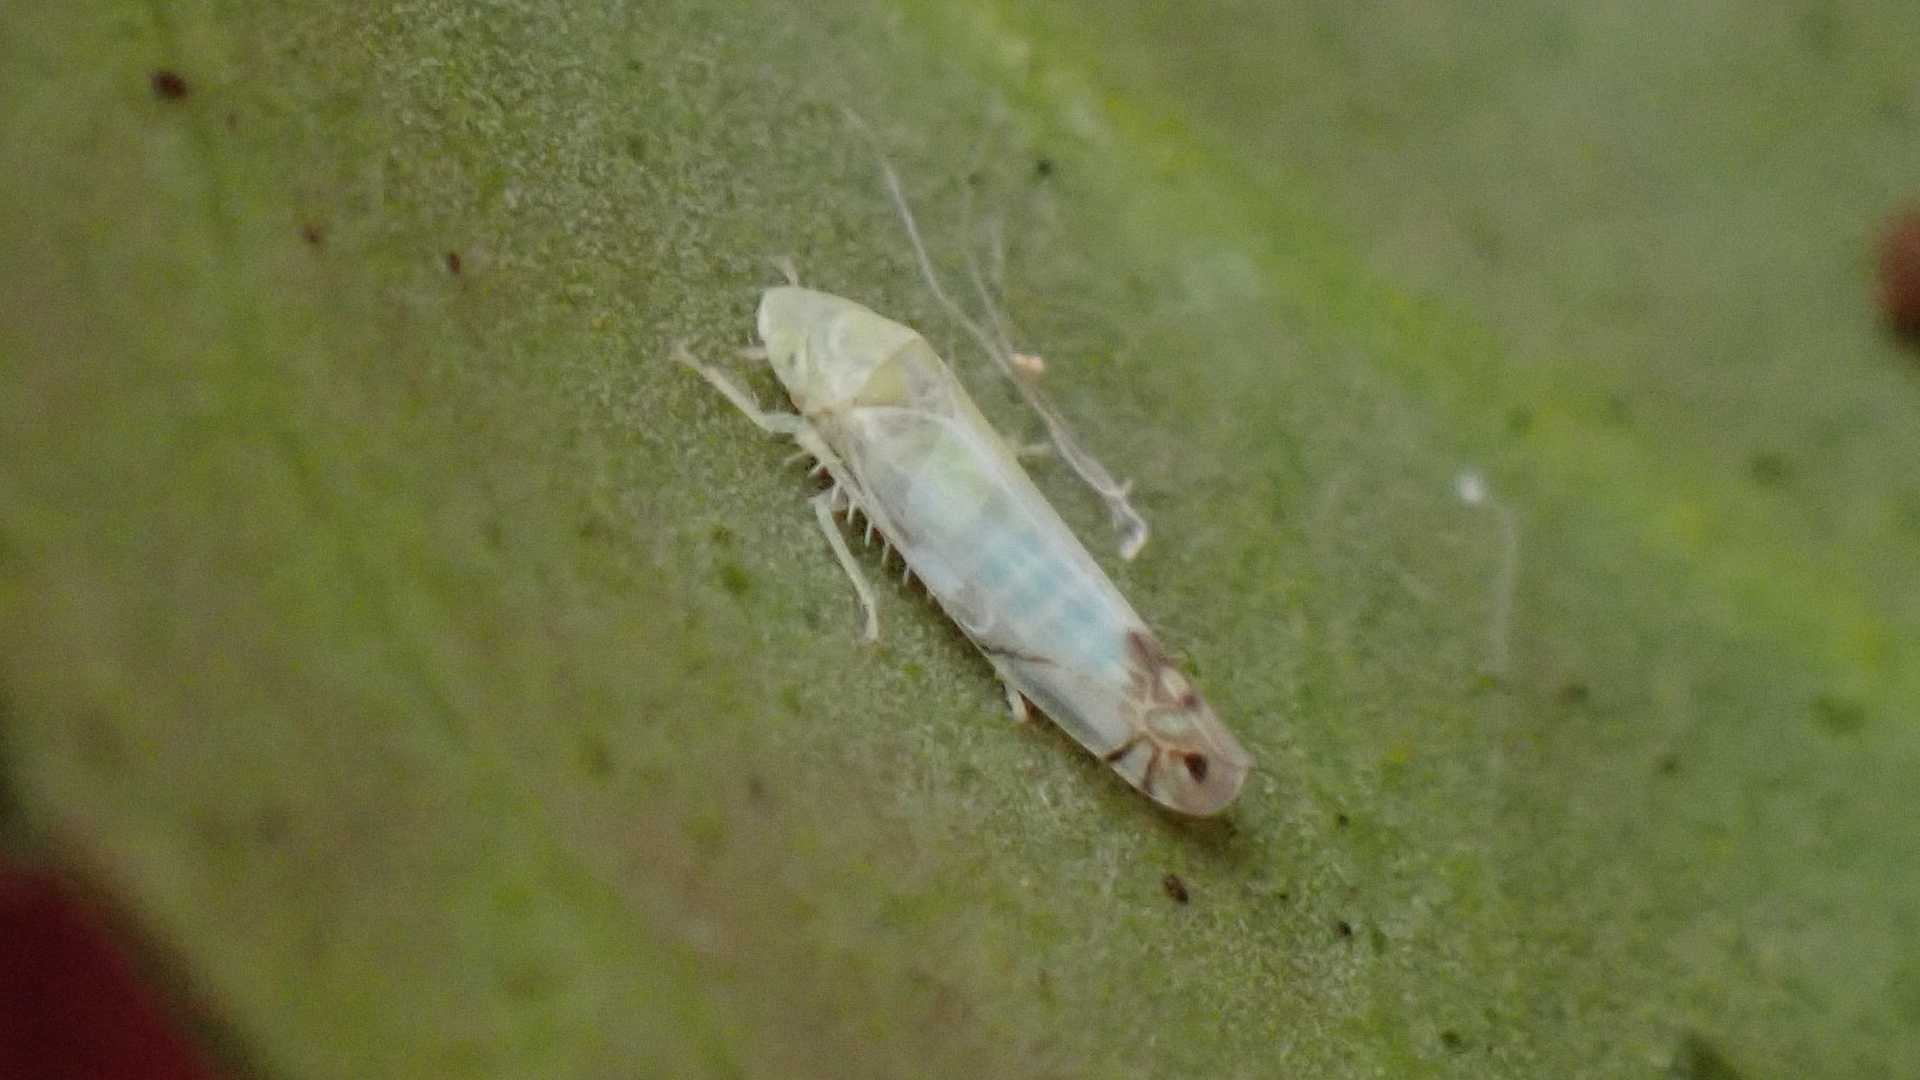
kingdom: Animalia
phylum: Arthropoda
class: Insecta
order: Hemiptera
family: Cicadellidae
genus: Zyginella
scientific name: Zyginella pulchra
